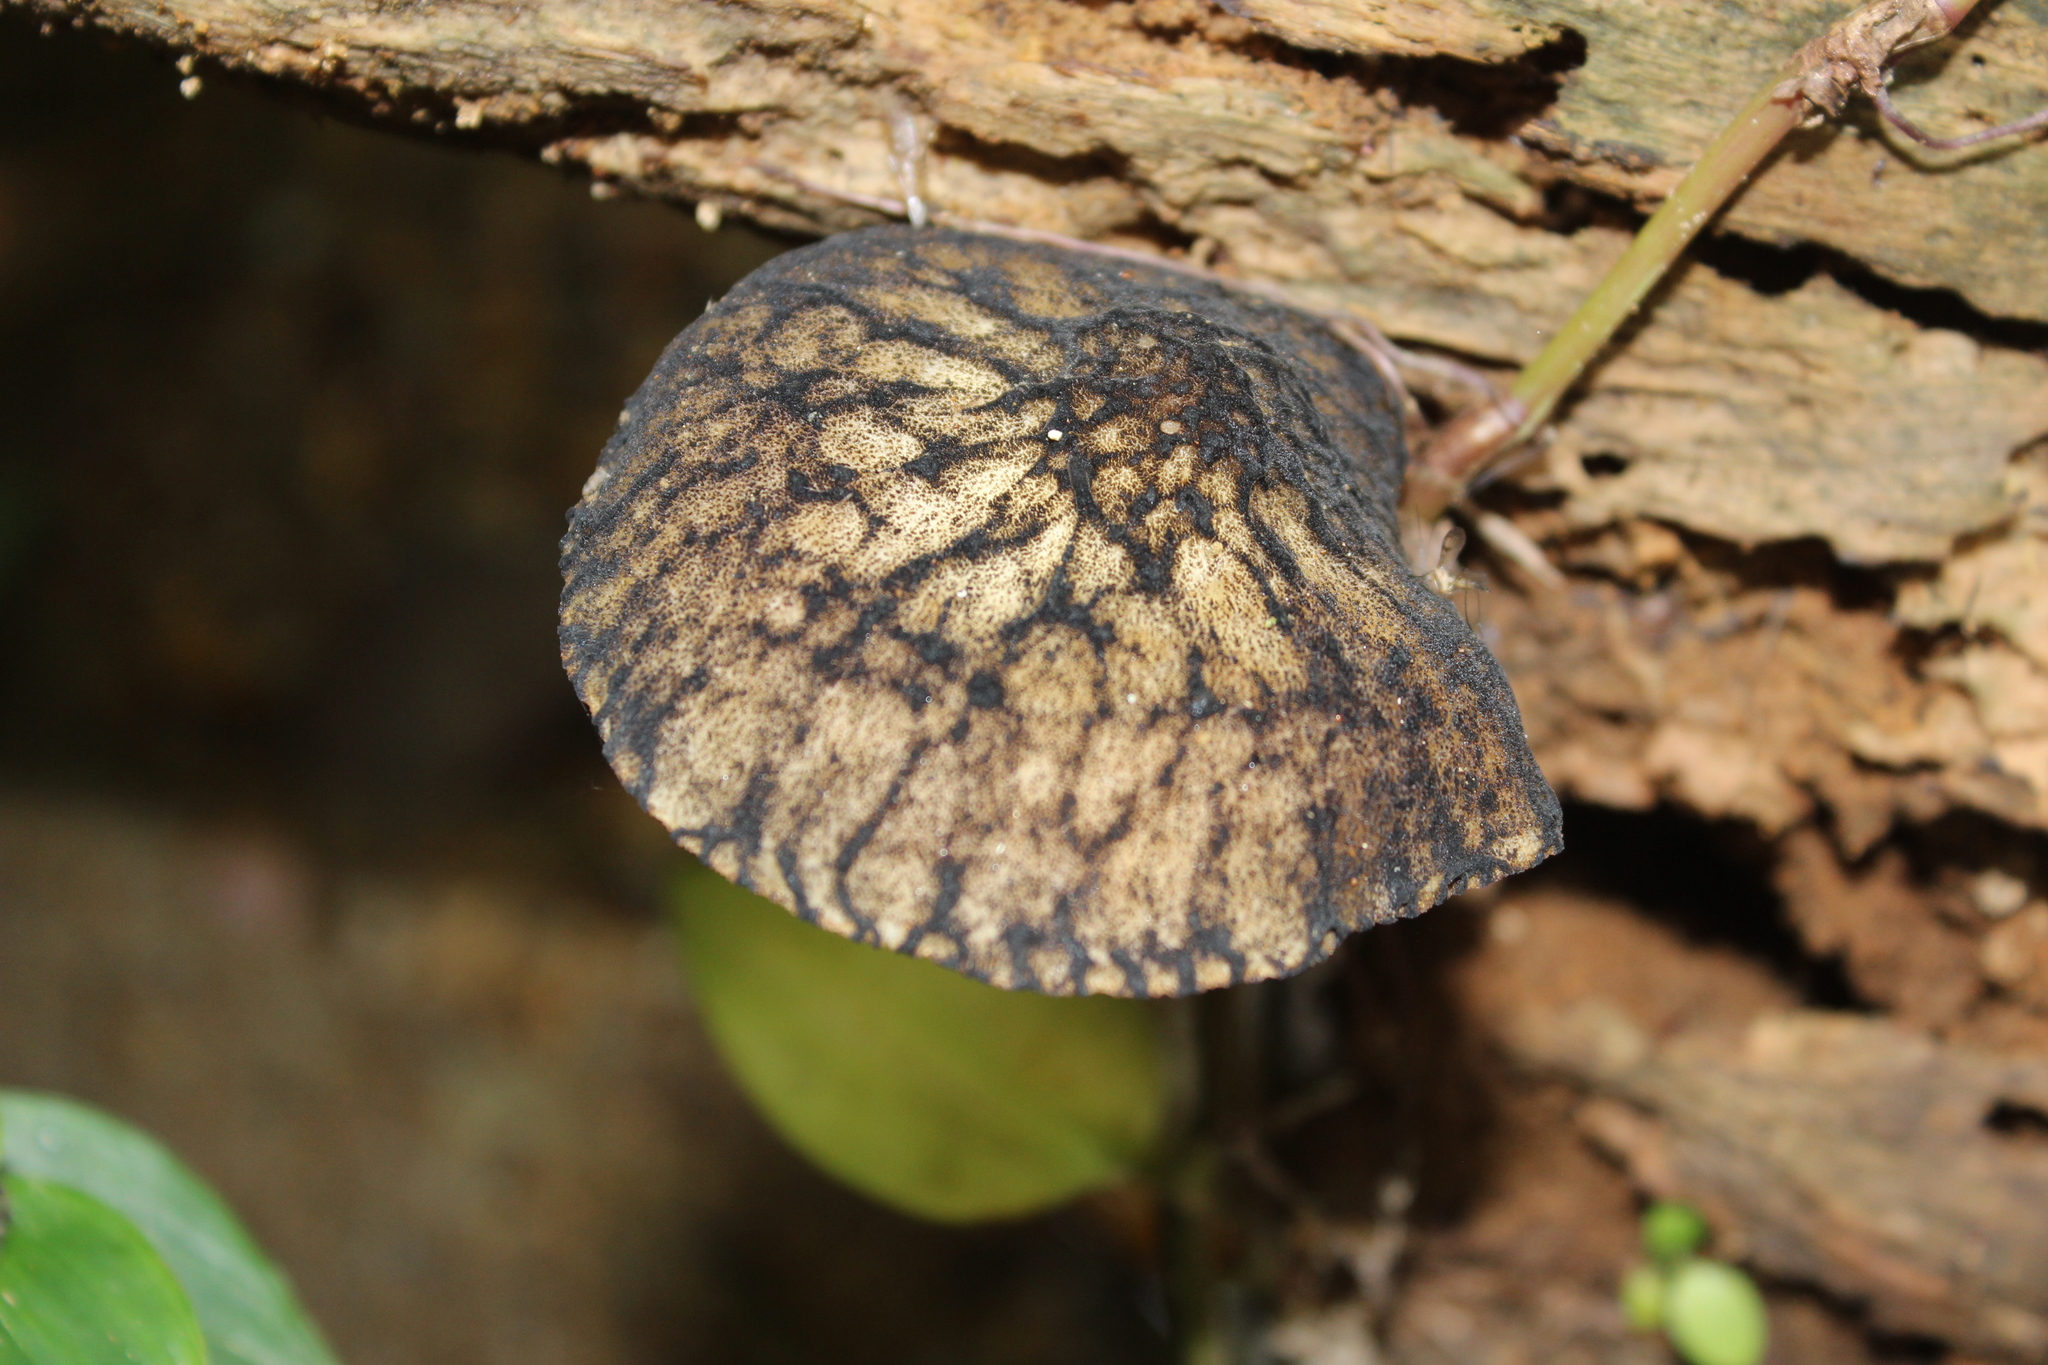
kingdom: Fungi
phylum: Basidiomycota
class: Agaricomycetes
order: Agaricales
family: Pluteaceae
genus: Pluteus
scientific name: Pluteus readiarum
